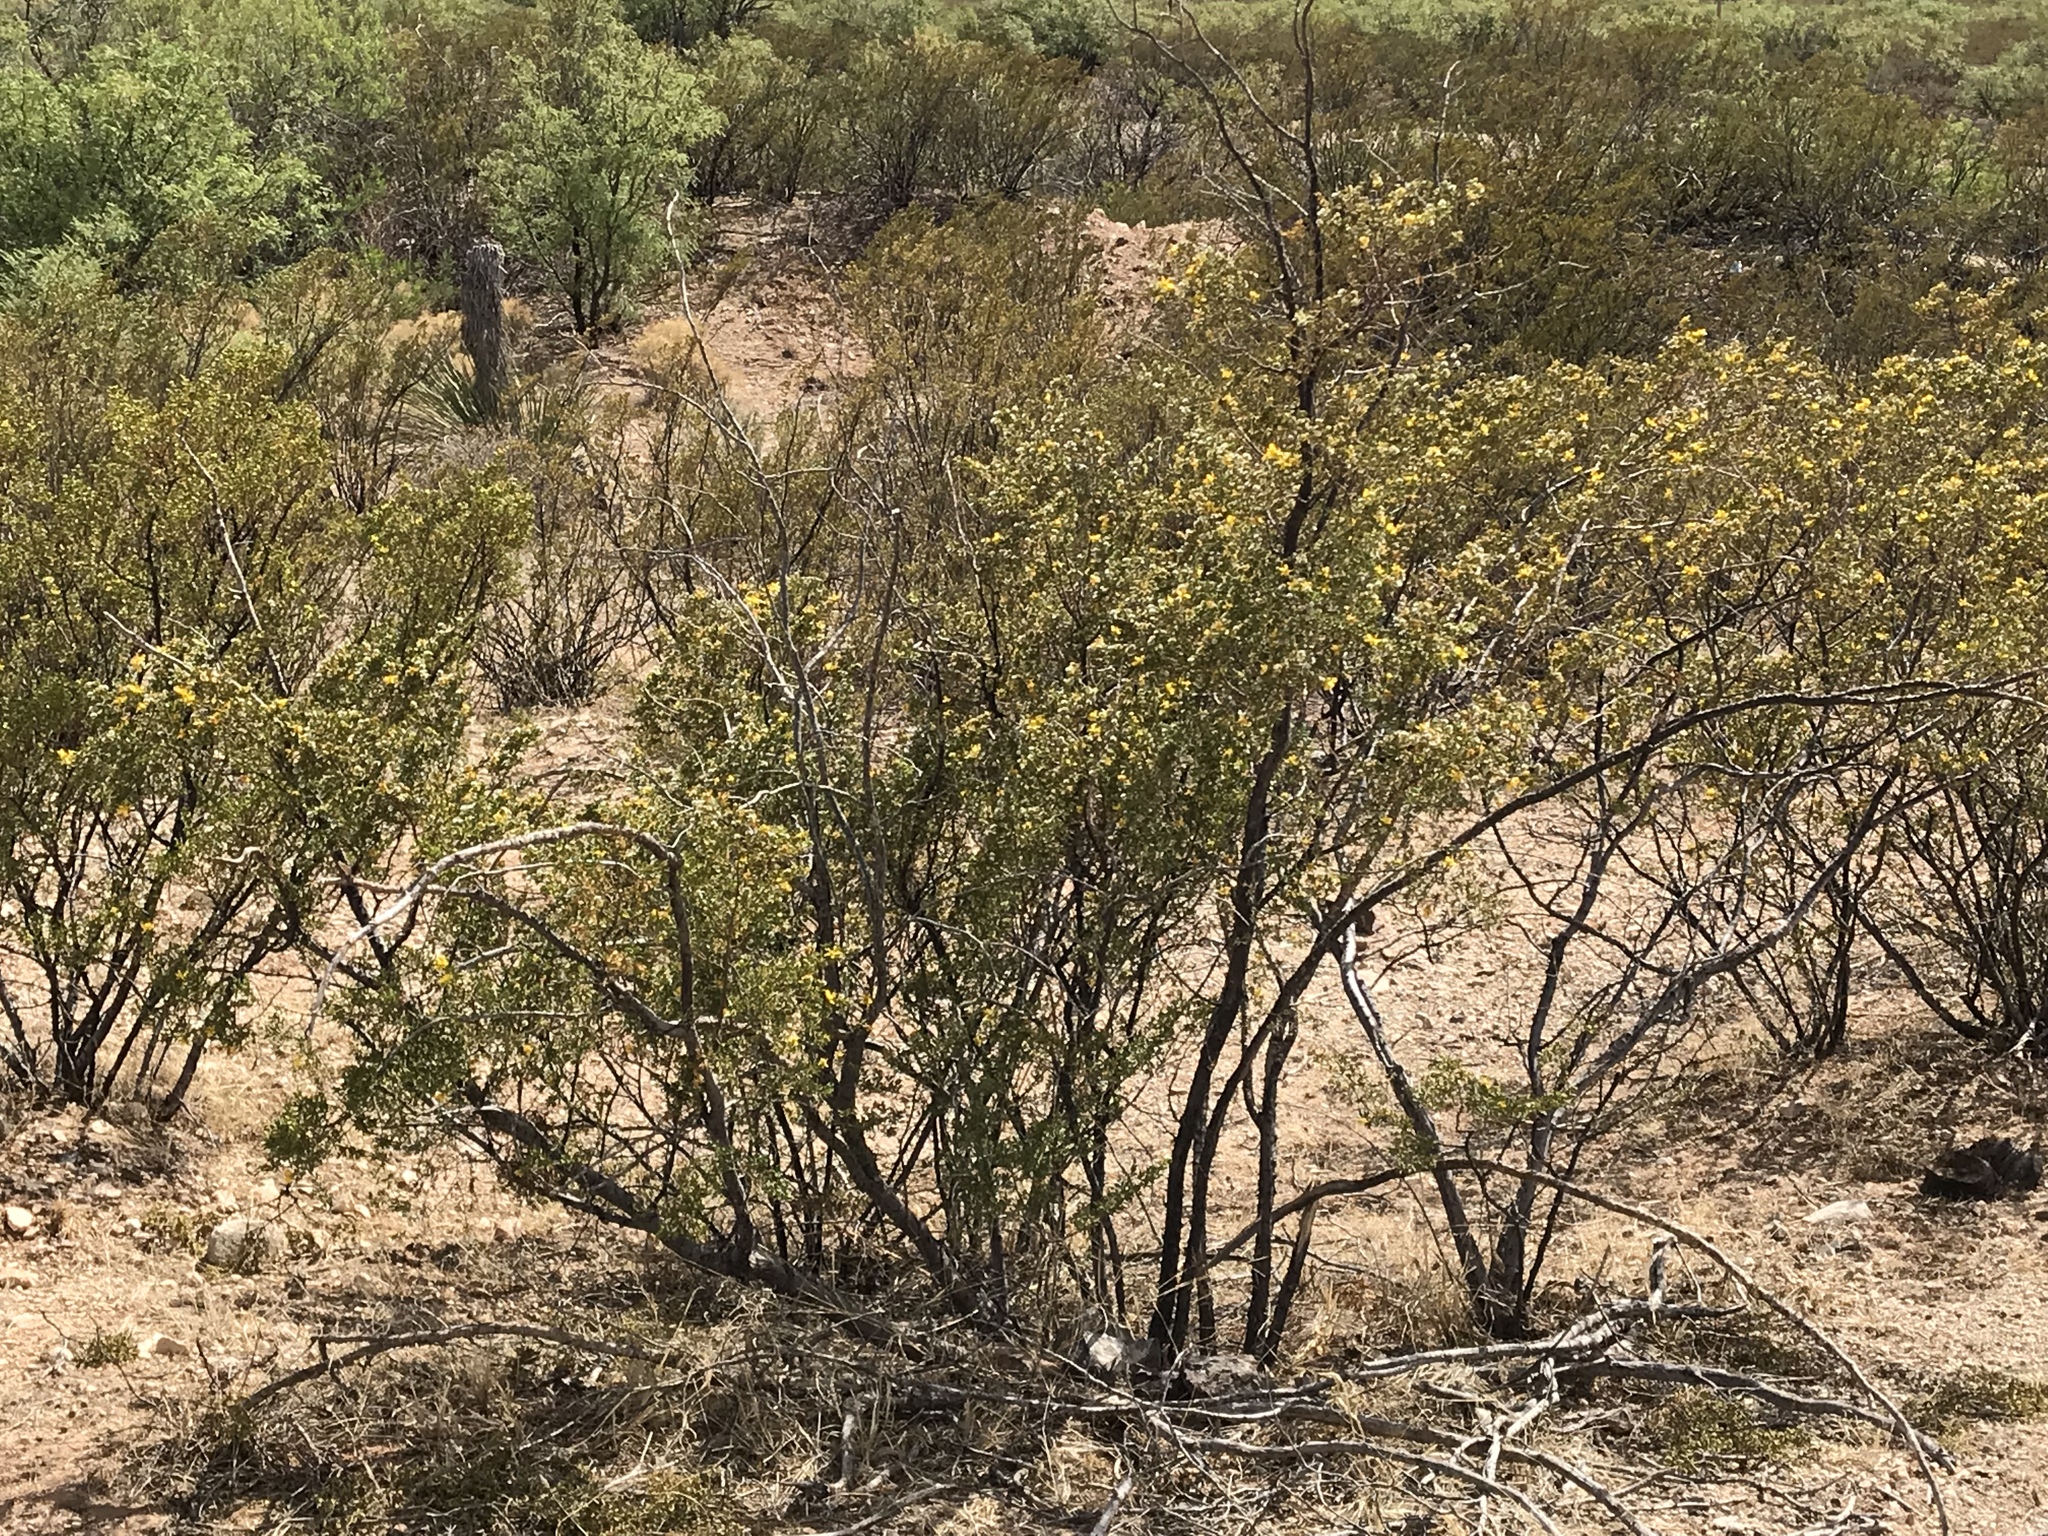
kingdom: Plantae
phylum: Tracheophyta
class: Magnoliopsida
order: Zygophyllales
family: Zygophyllaceae
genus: Larrea
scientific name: Larrea tridentata
